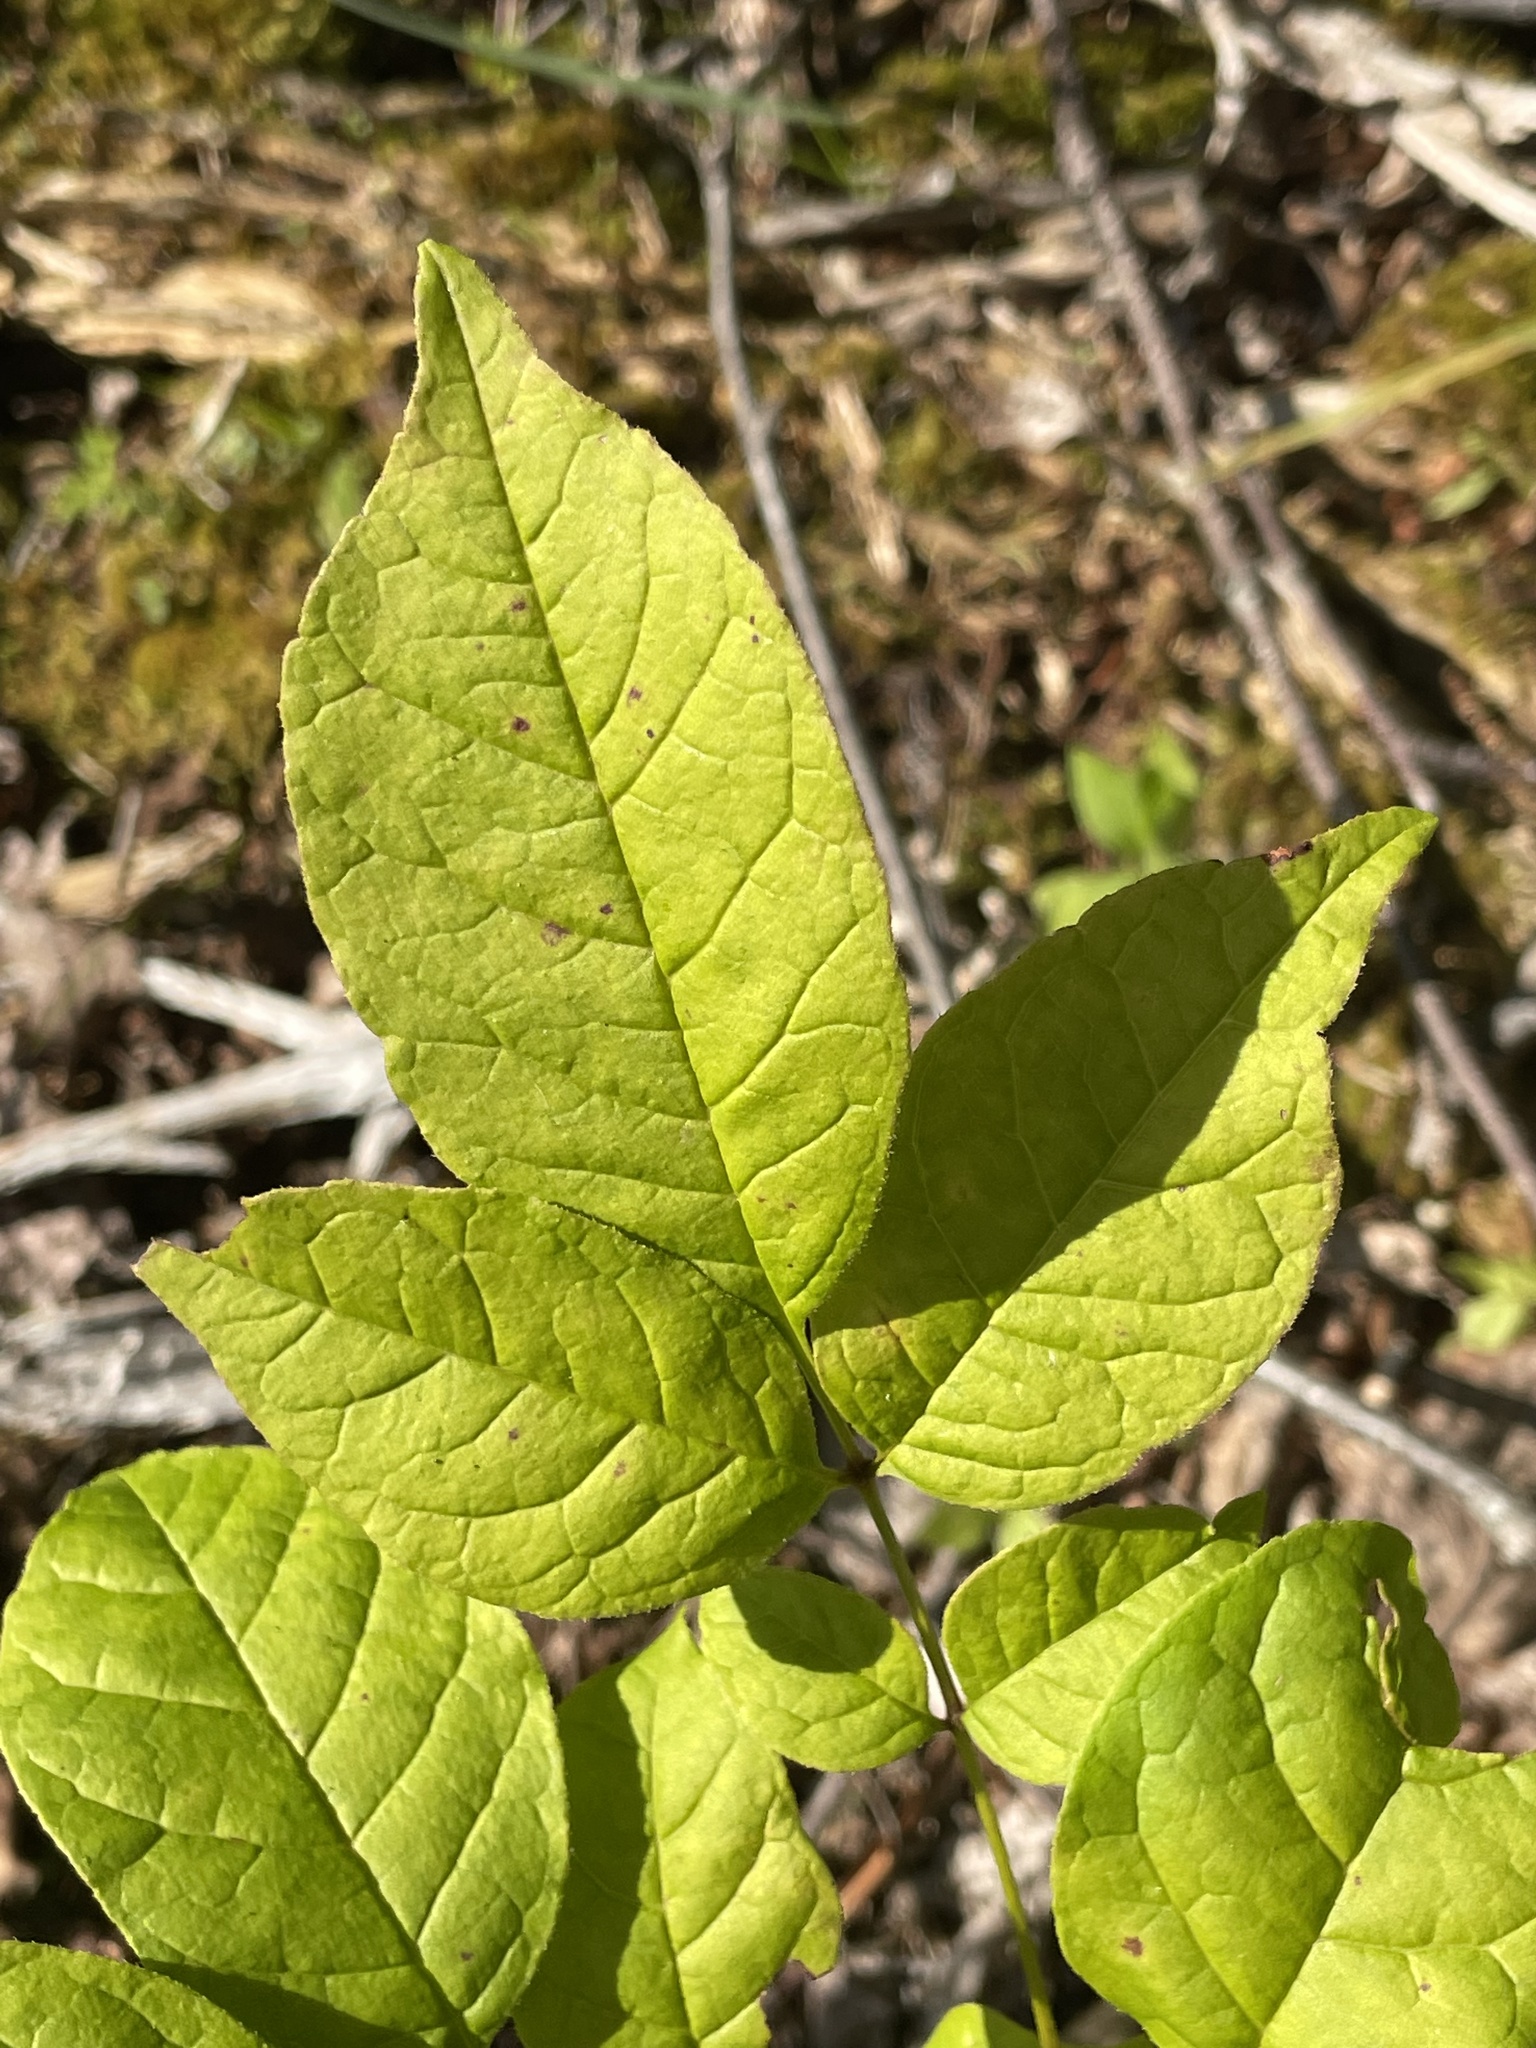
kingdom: Plantae
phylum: Tracheophyta
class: Magnoliopsida
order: Lamiales
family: Oleaceae
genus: Fraxinus
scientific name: Fraxinus americana
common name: White ash
